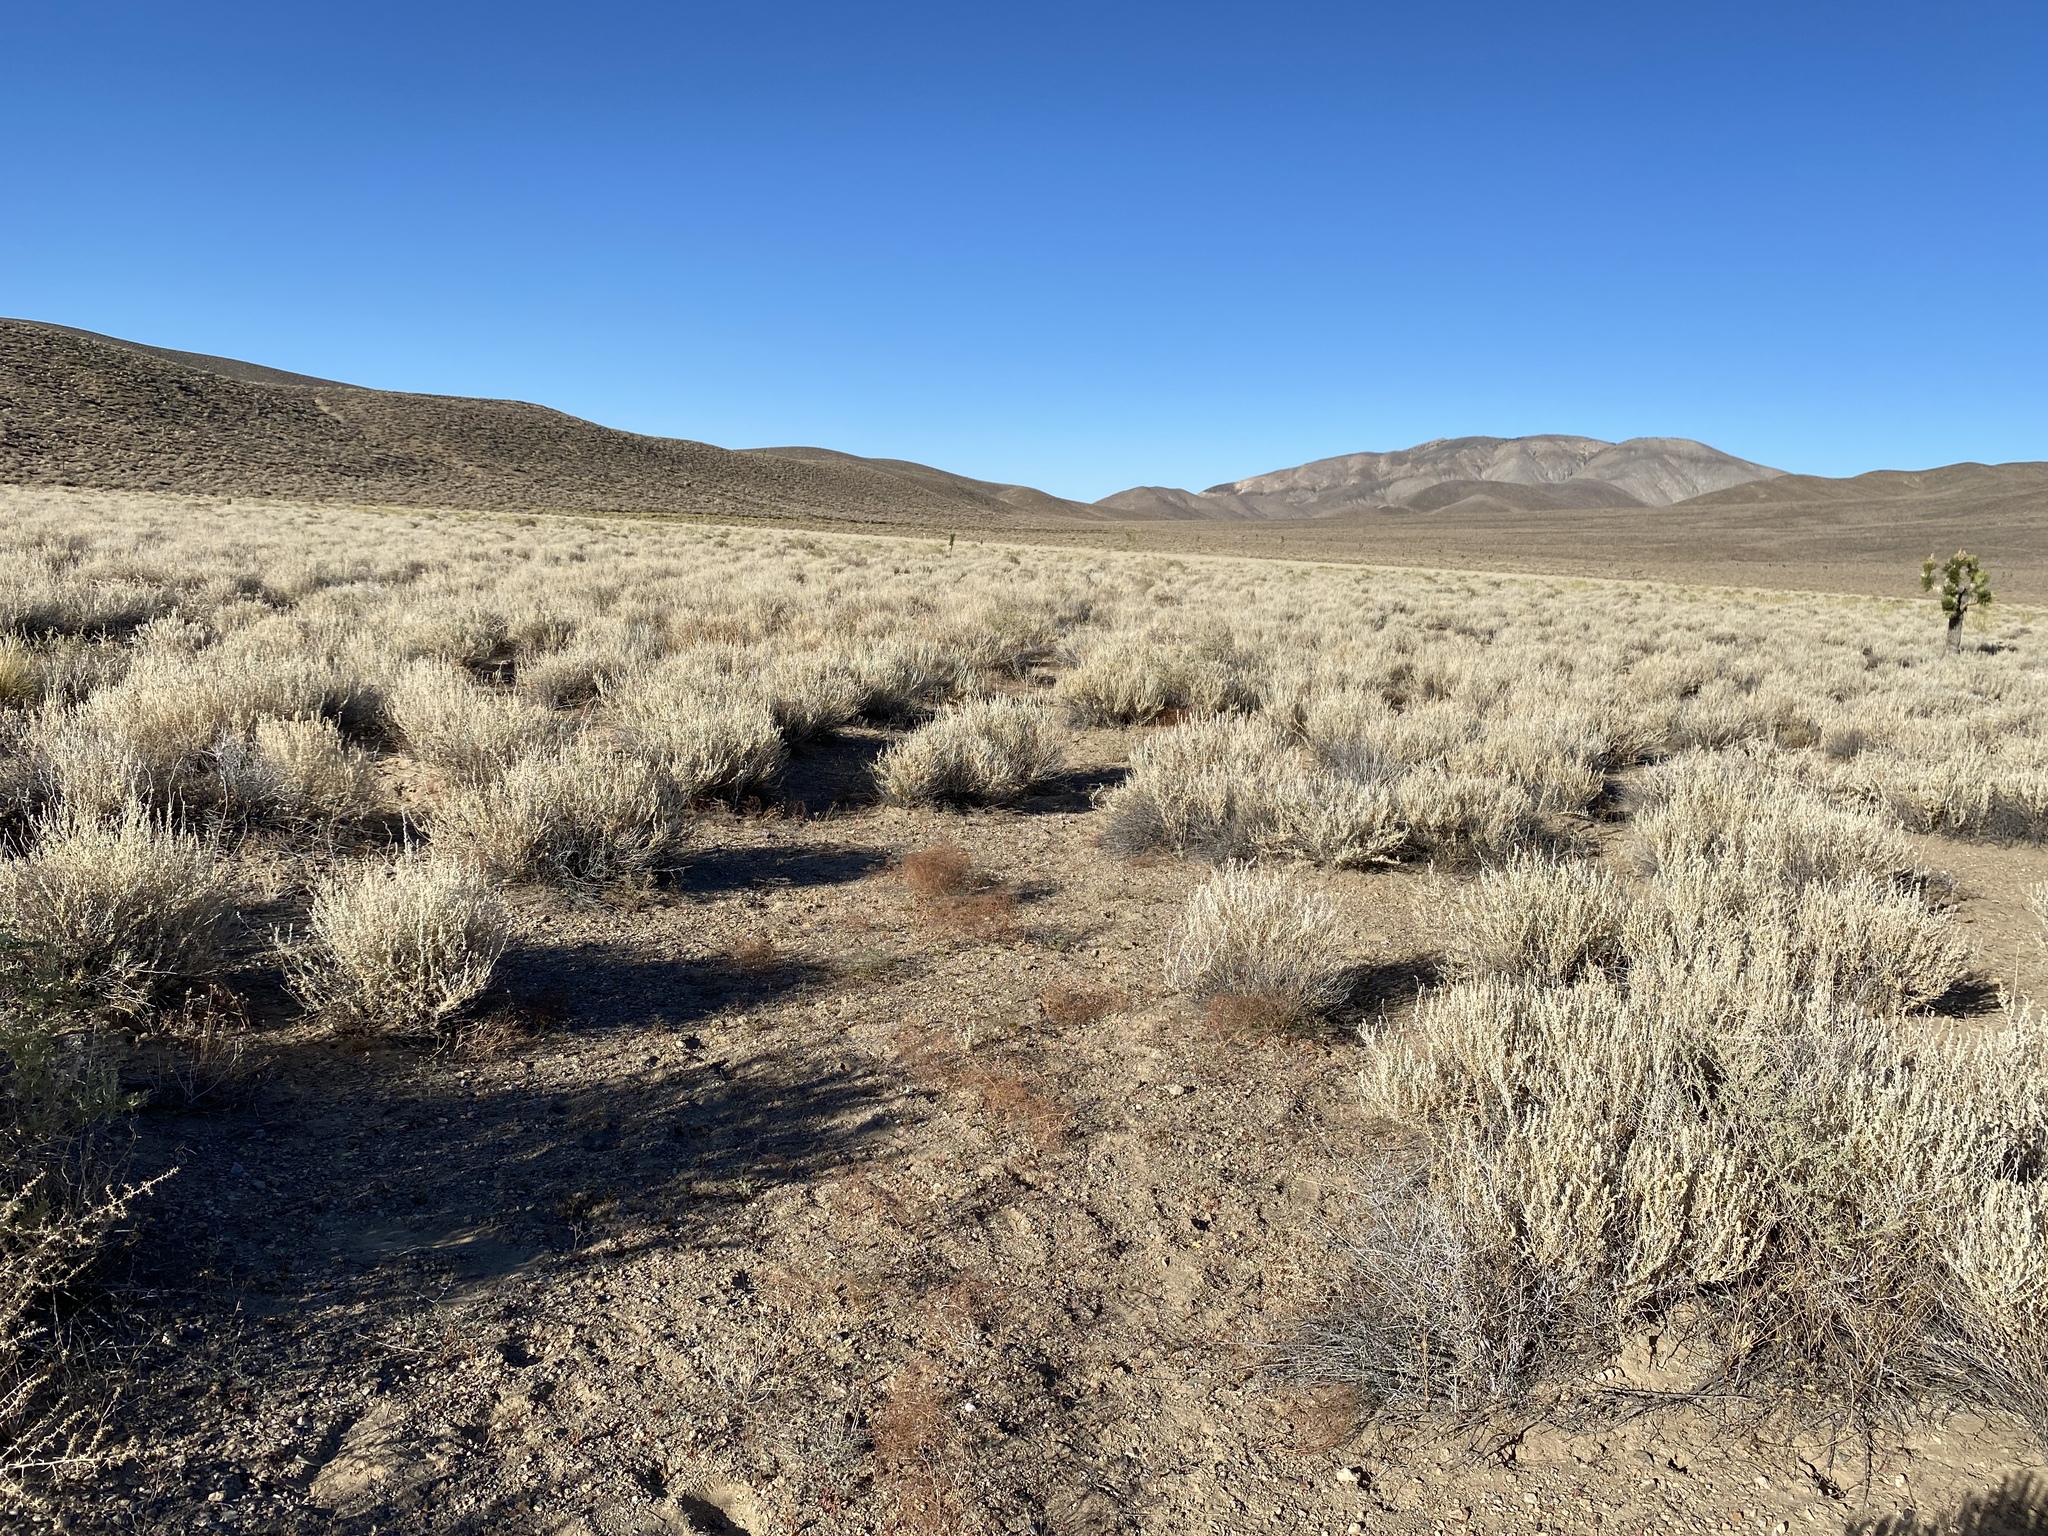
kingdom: Plantae
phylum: Tracheophyta
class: Magnoliopsida
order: Caryophyllales
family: Polygonaceae
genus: Oxytheca
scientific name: Oxytheca watsonii
